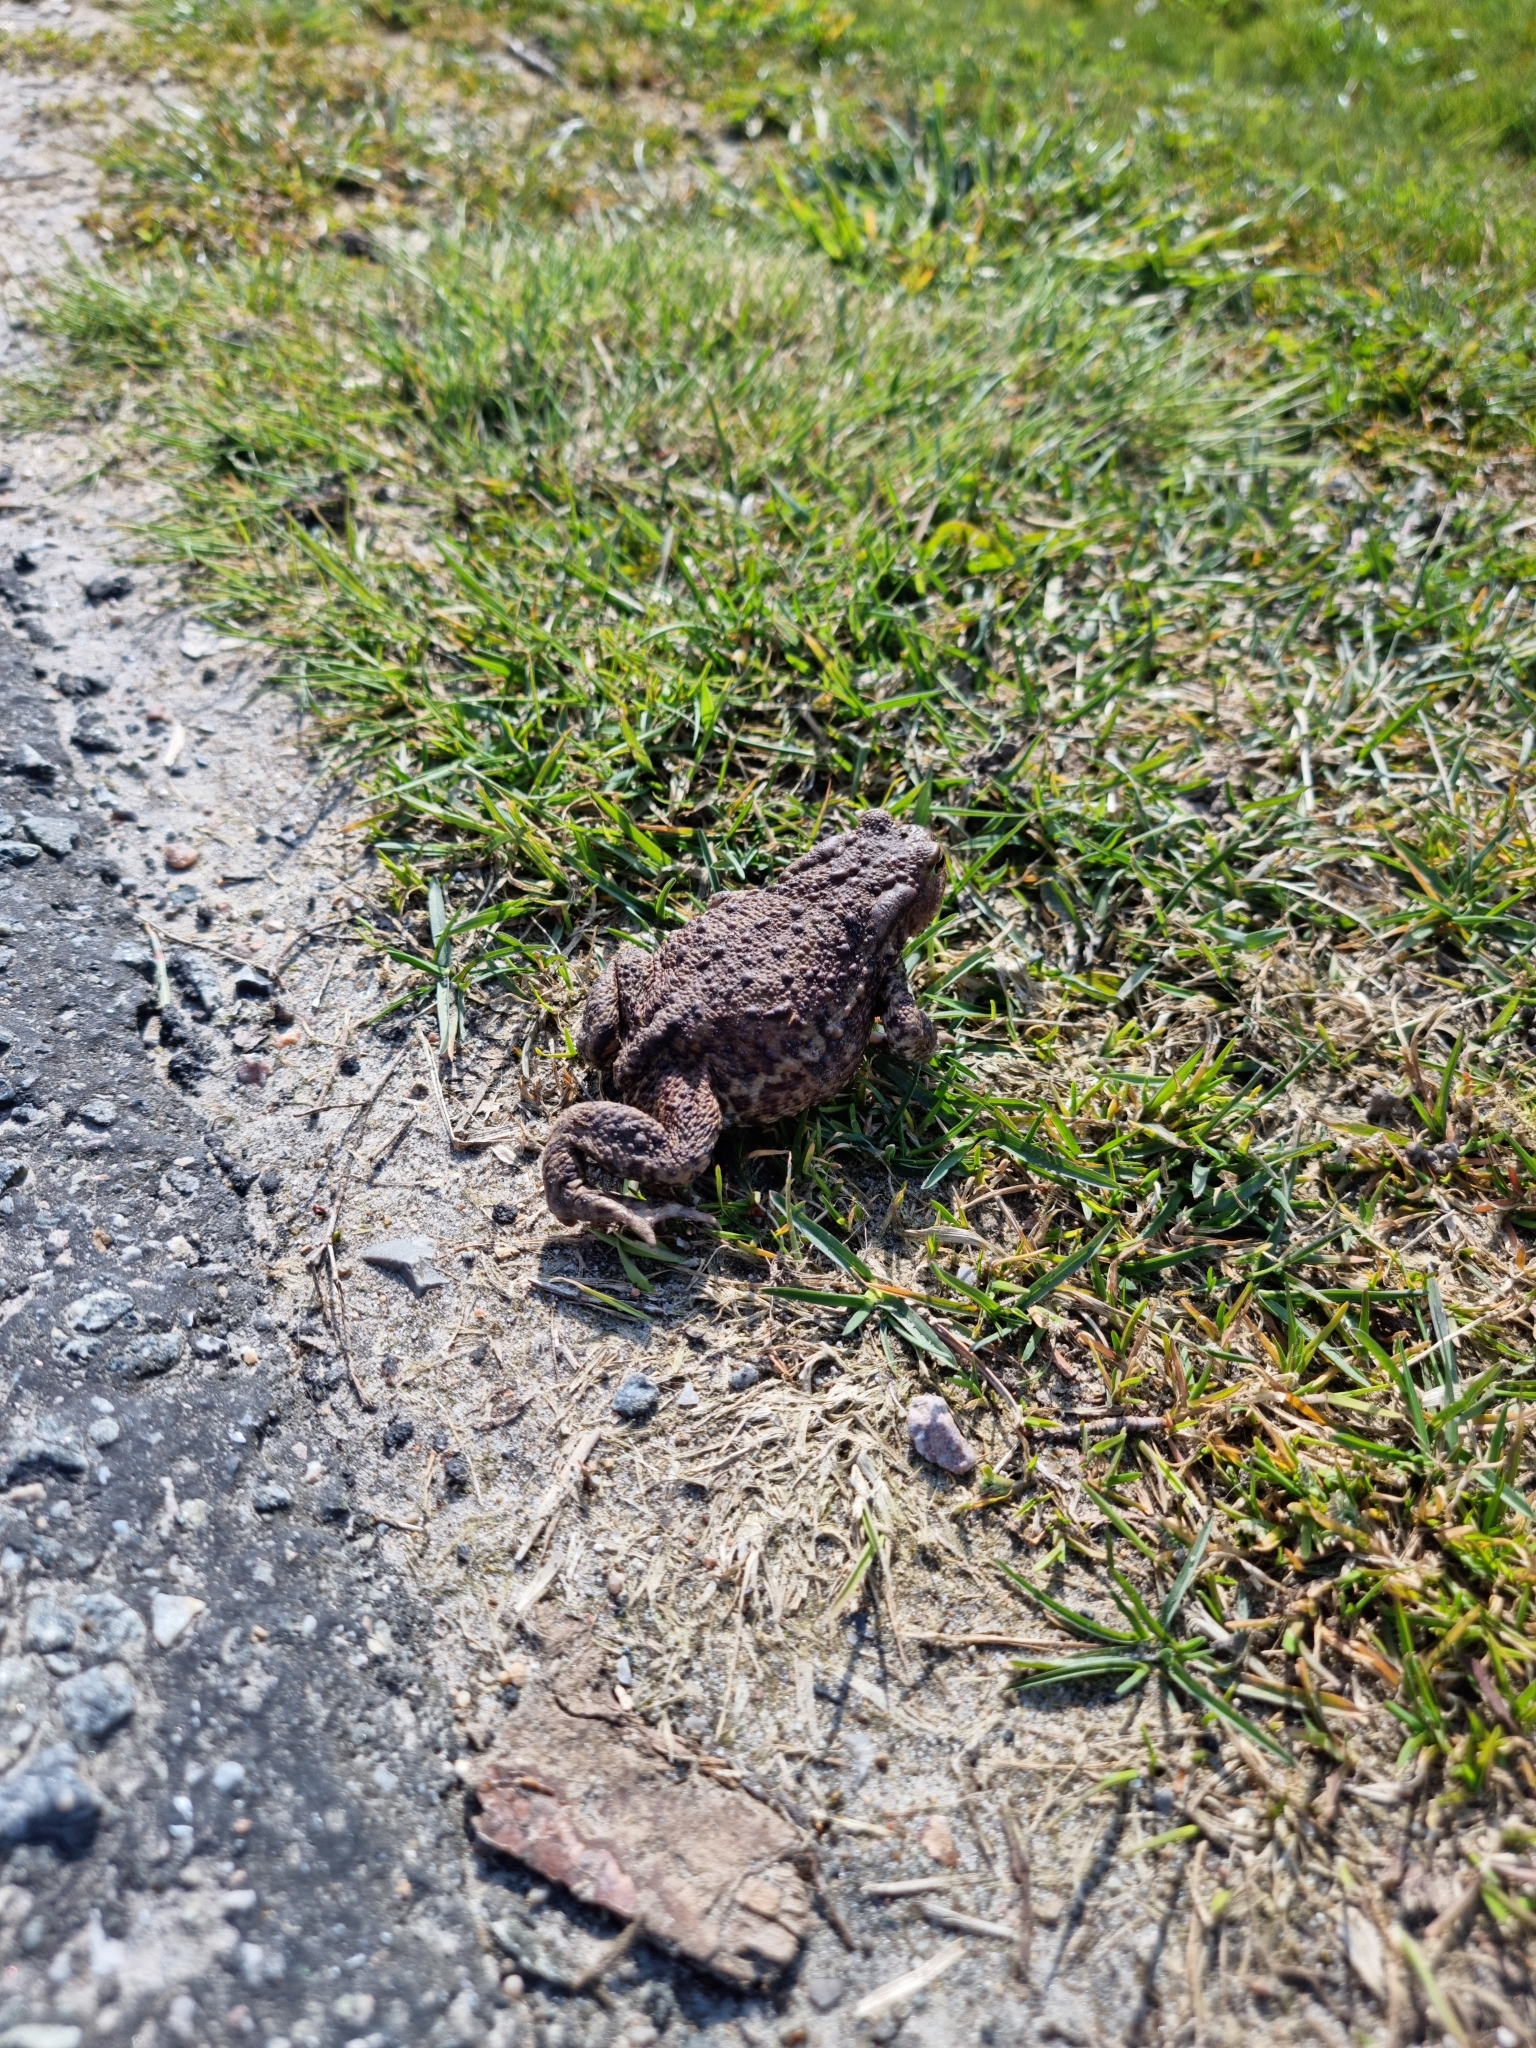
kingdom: Animalia
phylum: Chordata
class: Amphibia
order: Anura
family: Bufonidae
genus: Bufo
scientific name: Bufo bufo
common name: Common toad
